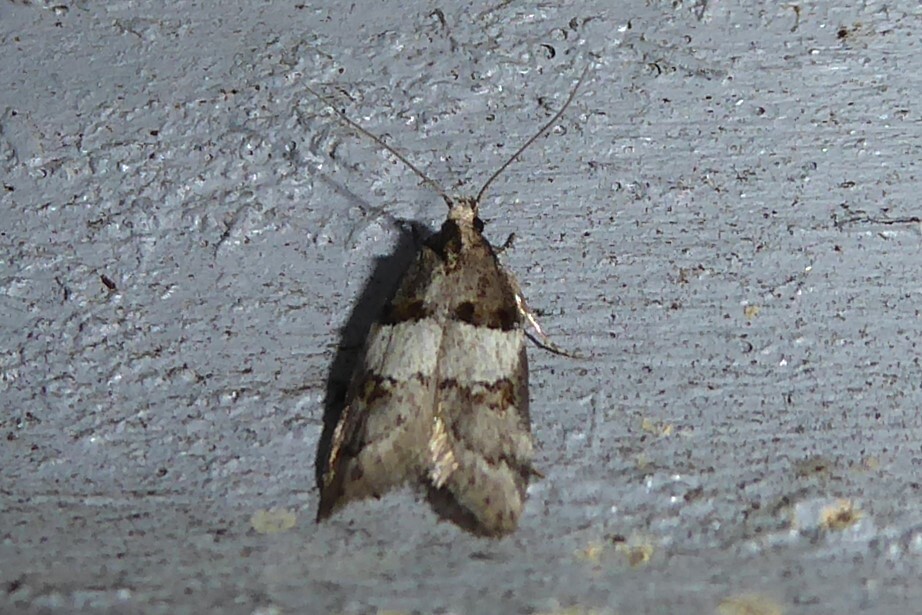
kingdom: Animalia
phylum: Arthropoda
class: Insecta
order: Lepidoptera
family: Oecophoridae
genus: Trachypepla
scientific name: Trachypepla contritella
